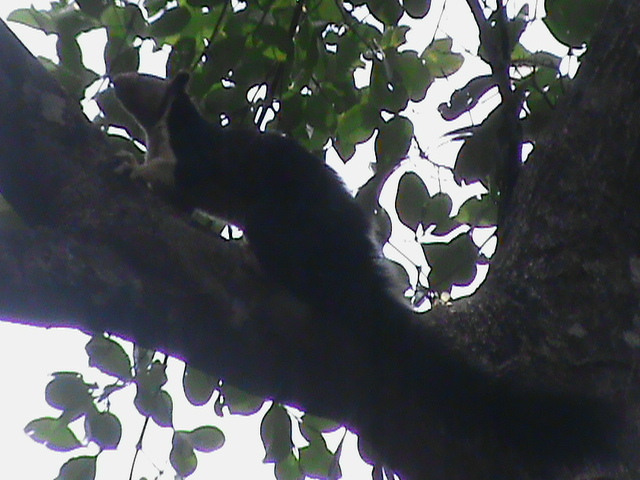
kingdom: Animalia
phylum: Chordata
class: Mammalia
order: Rodentia
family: Sciuridae
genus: Ratufa
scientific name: Ratufa indica
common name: Indian giant squirrel
